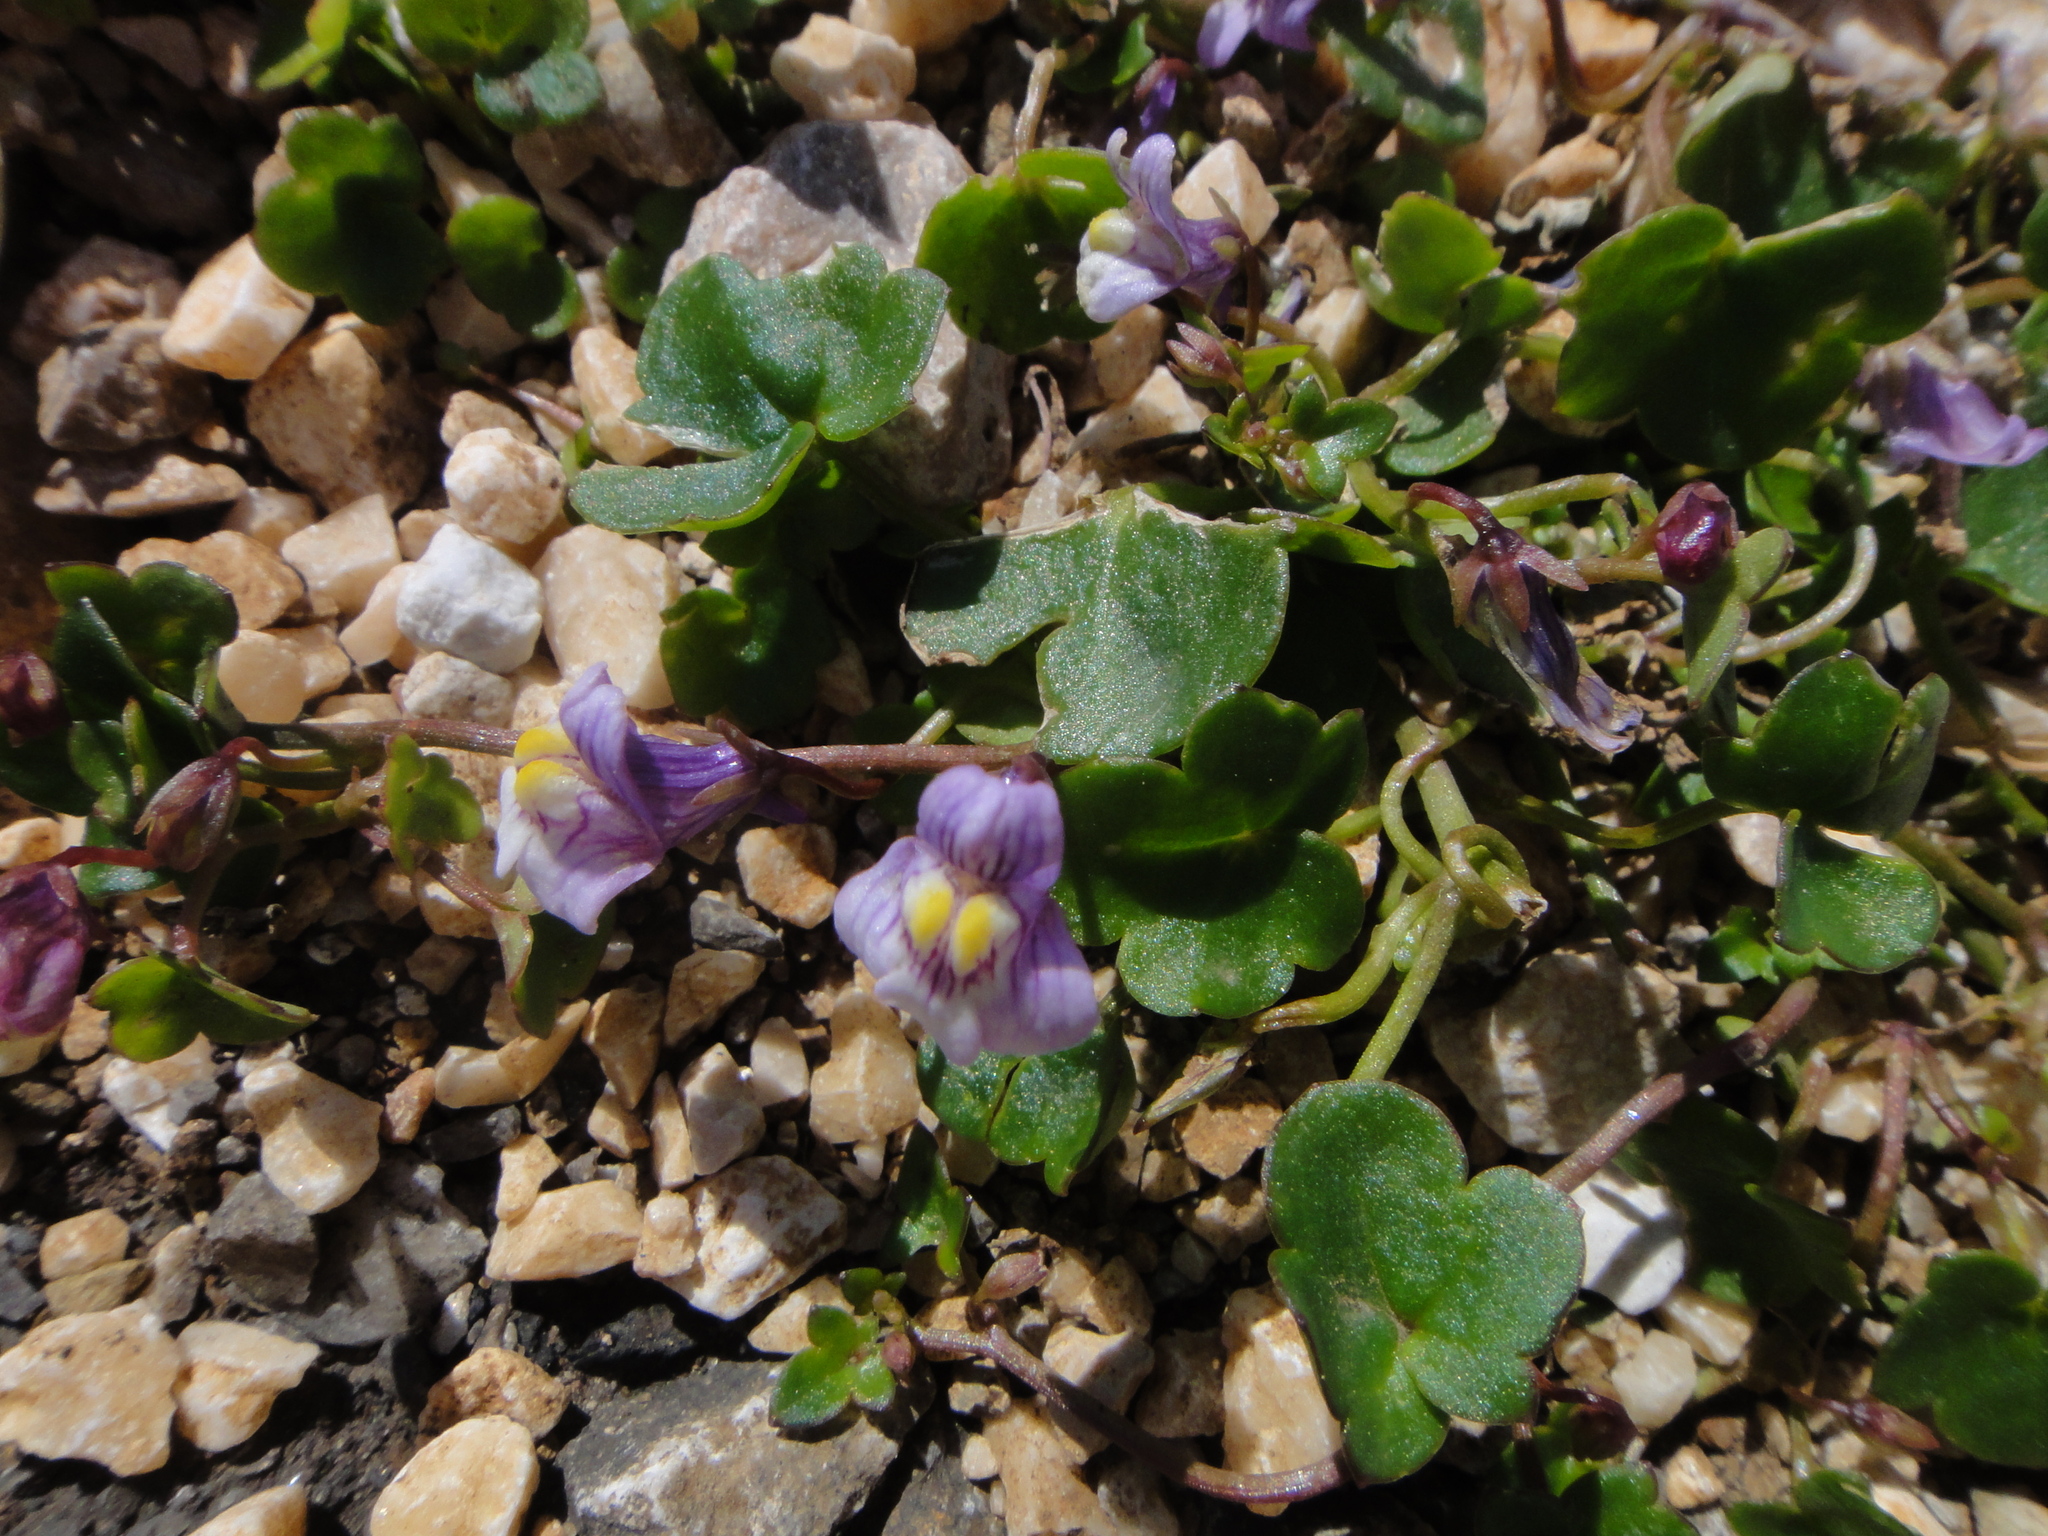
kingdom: Plantae
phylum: Tracheophyta
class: Magnoliopsida
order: Lamiales
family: Plantaginaceae
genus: Cymbalaria
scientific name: Cymbalaria muralis
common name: Ivy-leaved toadflax
